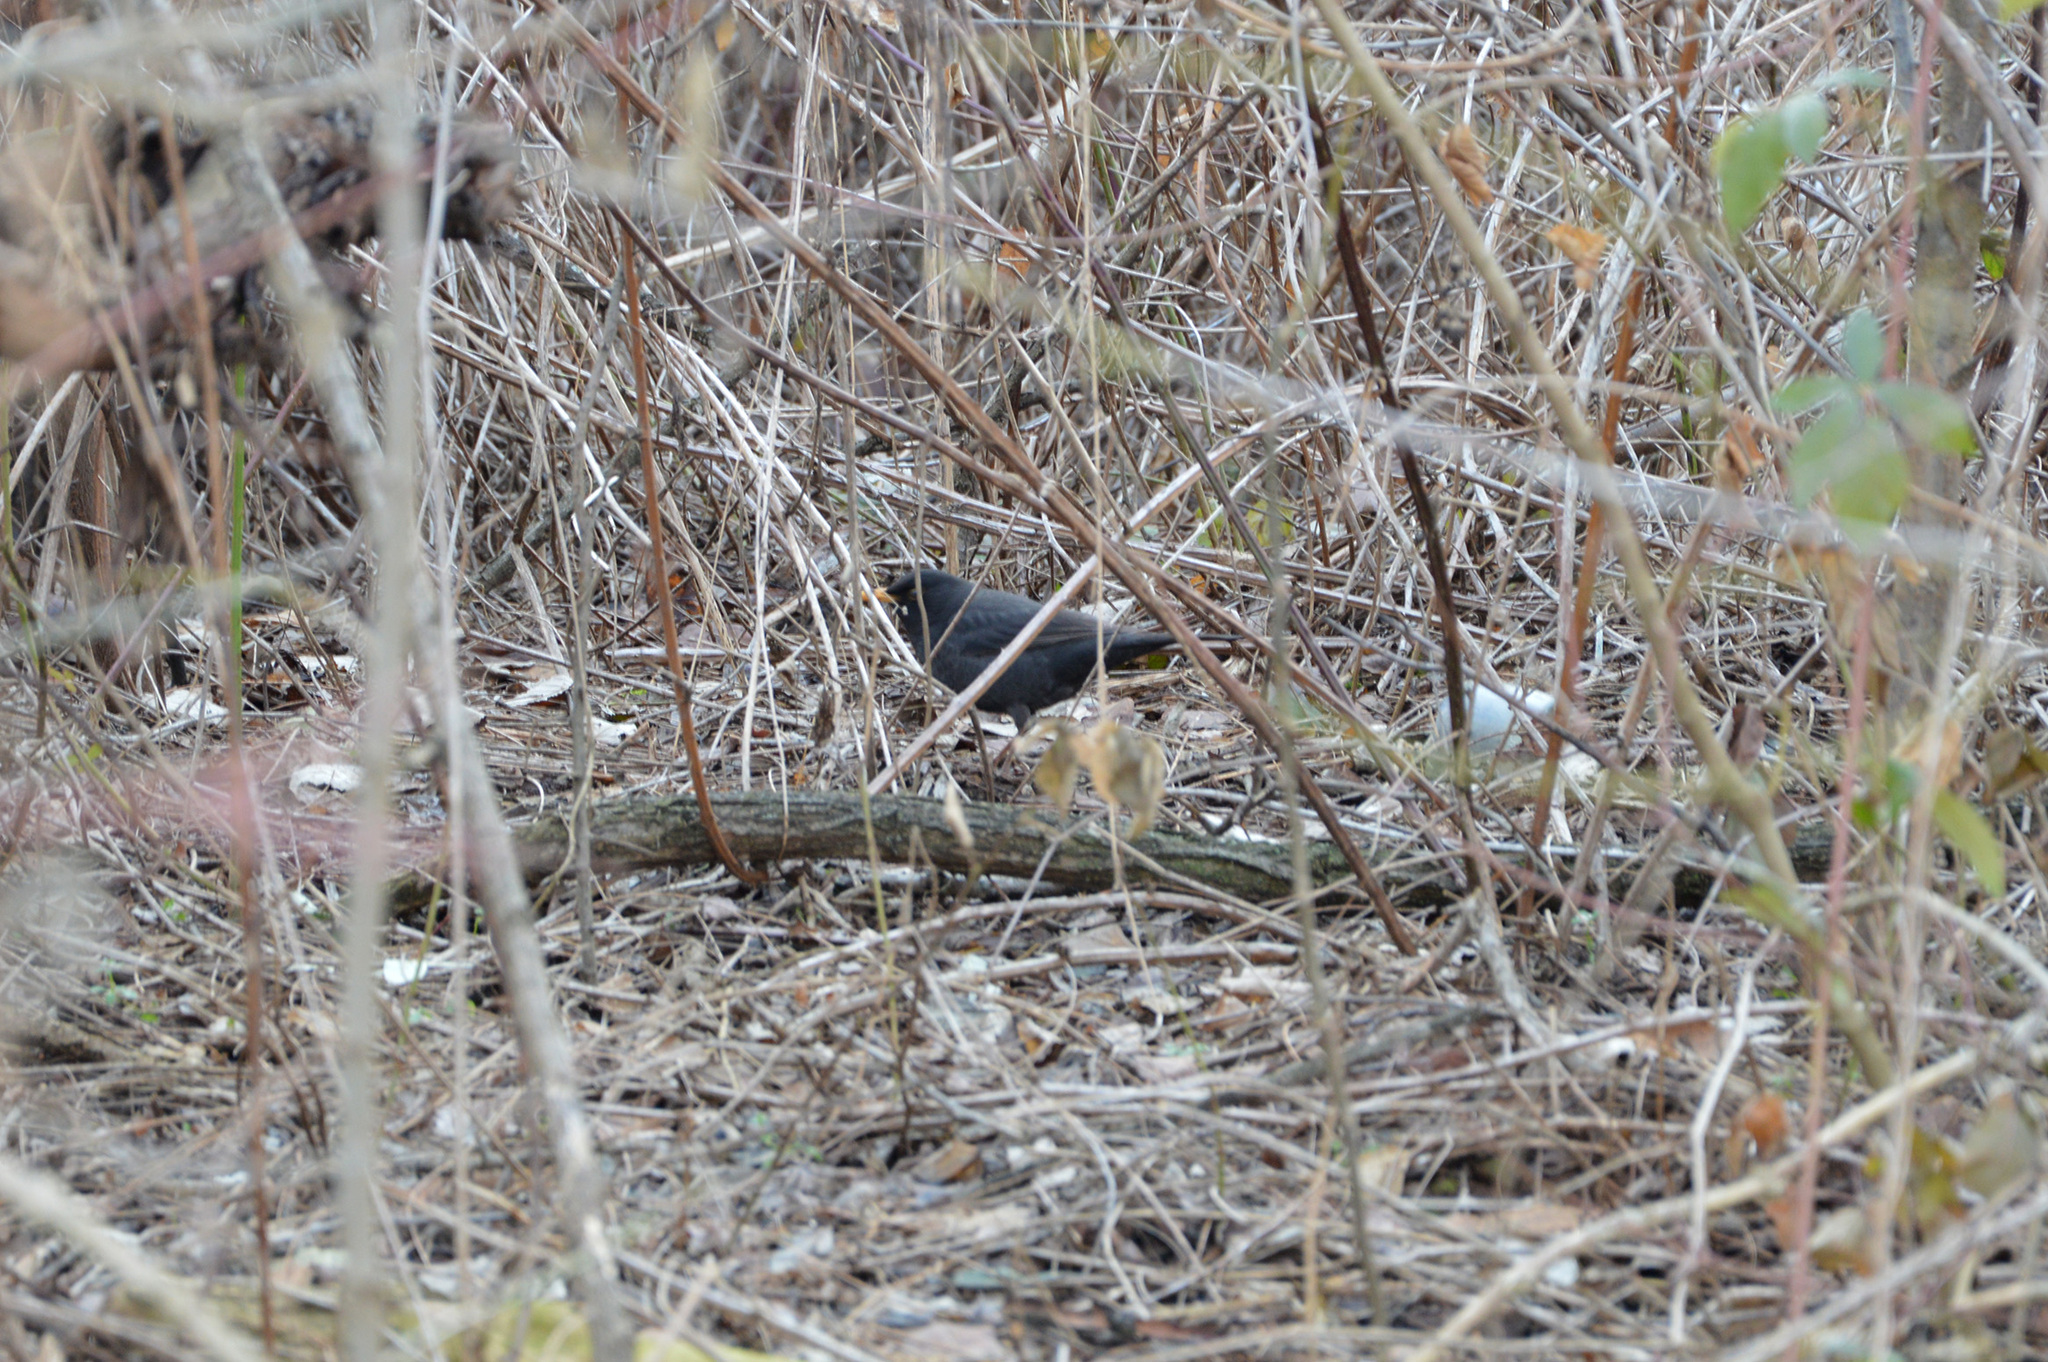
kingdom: Animalia
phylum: Chordata
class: Aves
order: Passeriformes
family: Turdidae
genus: Turdus
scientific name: Turdus merula
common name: Common blackbird
